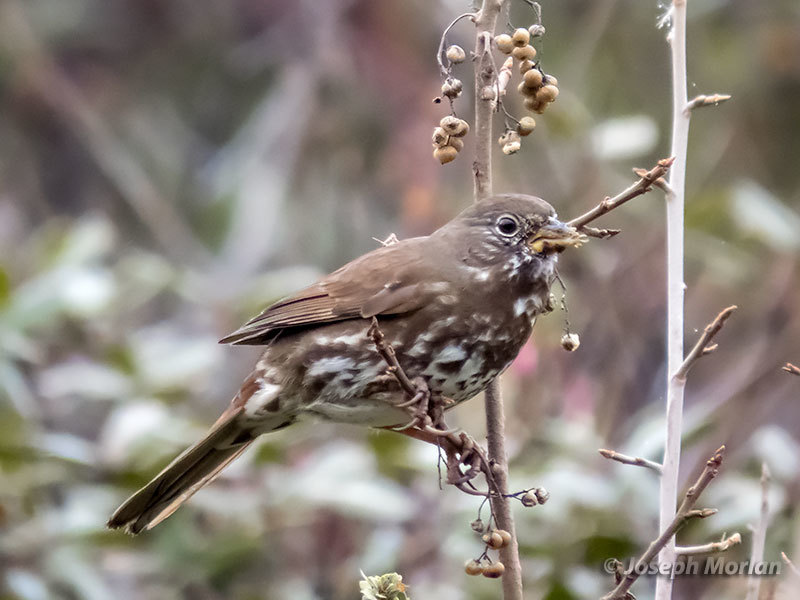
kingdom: Animalia
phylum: Chordata
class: Aves
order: Passeriformes
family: Passerellidae
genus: Passerella
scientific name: Passerella iliaca
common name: Fox sparrow
